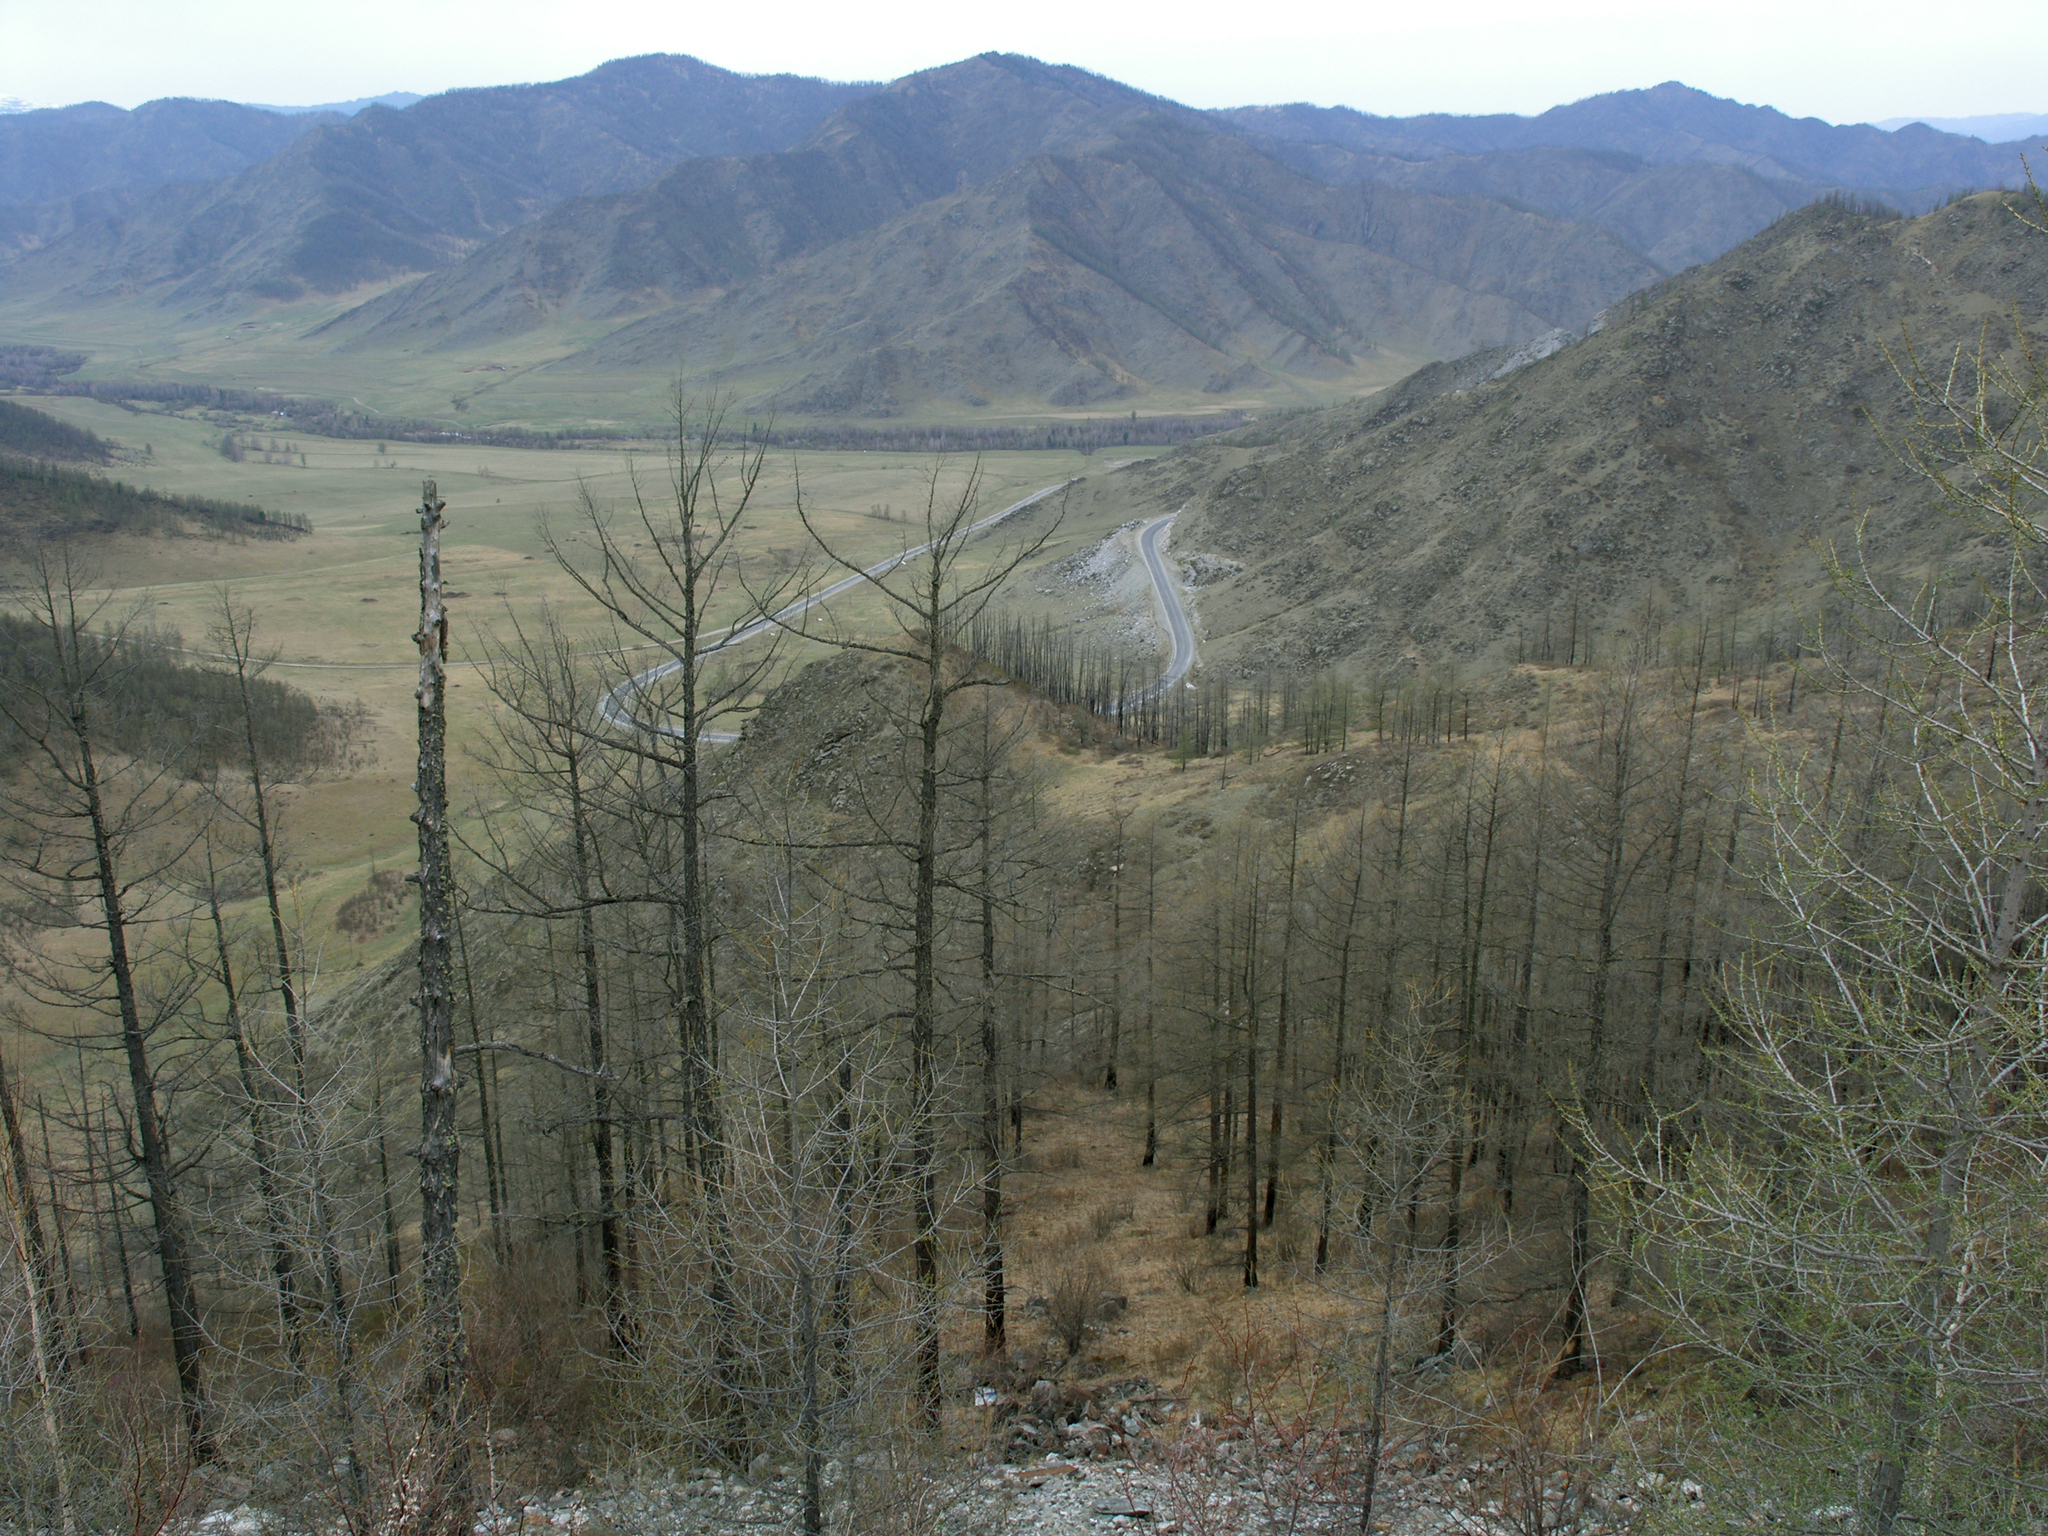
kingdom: Plantae
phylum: Tracheophyta
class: Pinopsida
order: Pinales
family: Pinaceae
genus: Larix
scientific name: Larix sibirica
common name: Siberian larch
